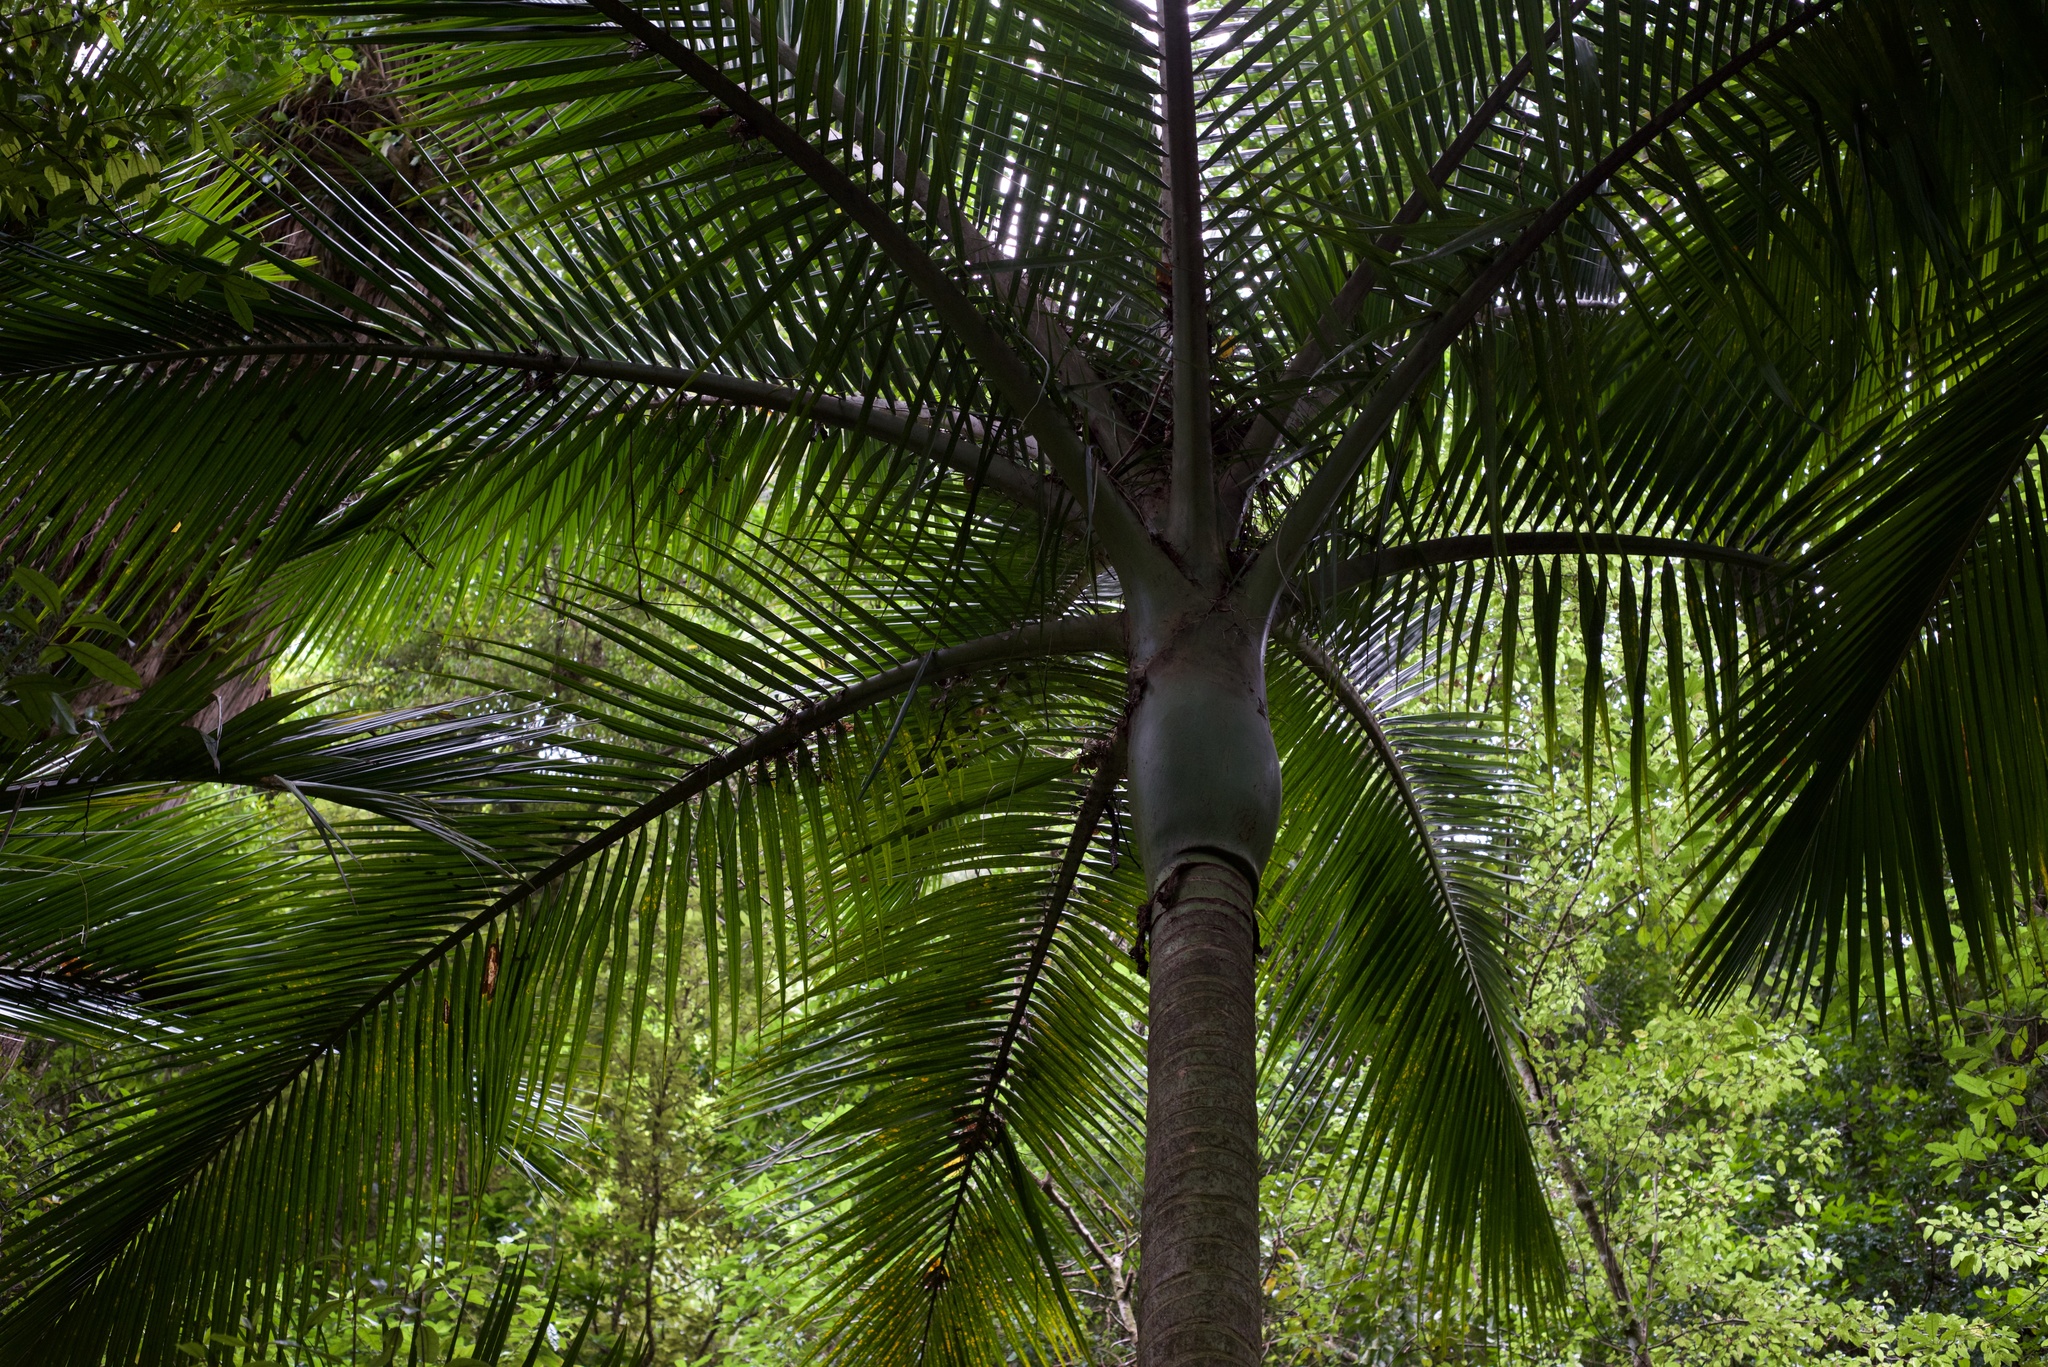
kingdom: Plantae
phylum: Tracheophyta
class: Liliopsida
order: Arecales
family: Arecaceae
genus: Rhopalostylis
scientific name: Rhopalostylis sapida
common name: Feather-duster palm
